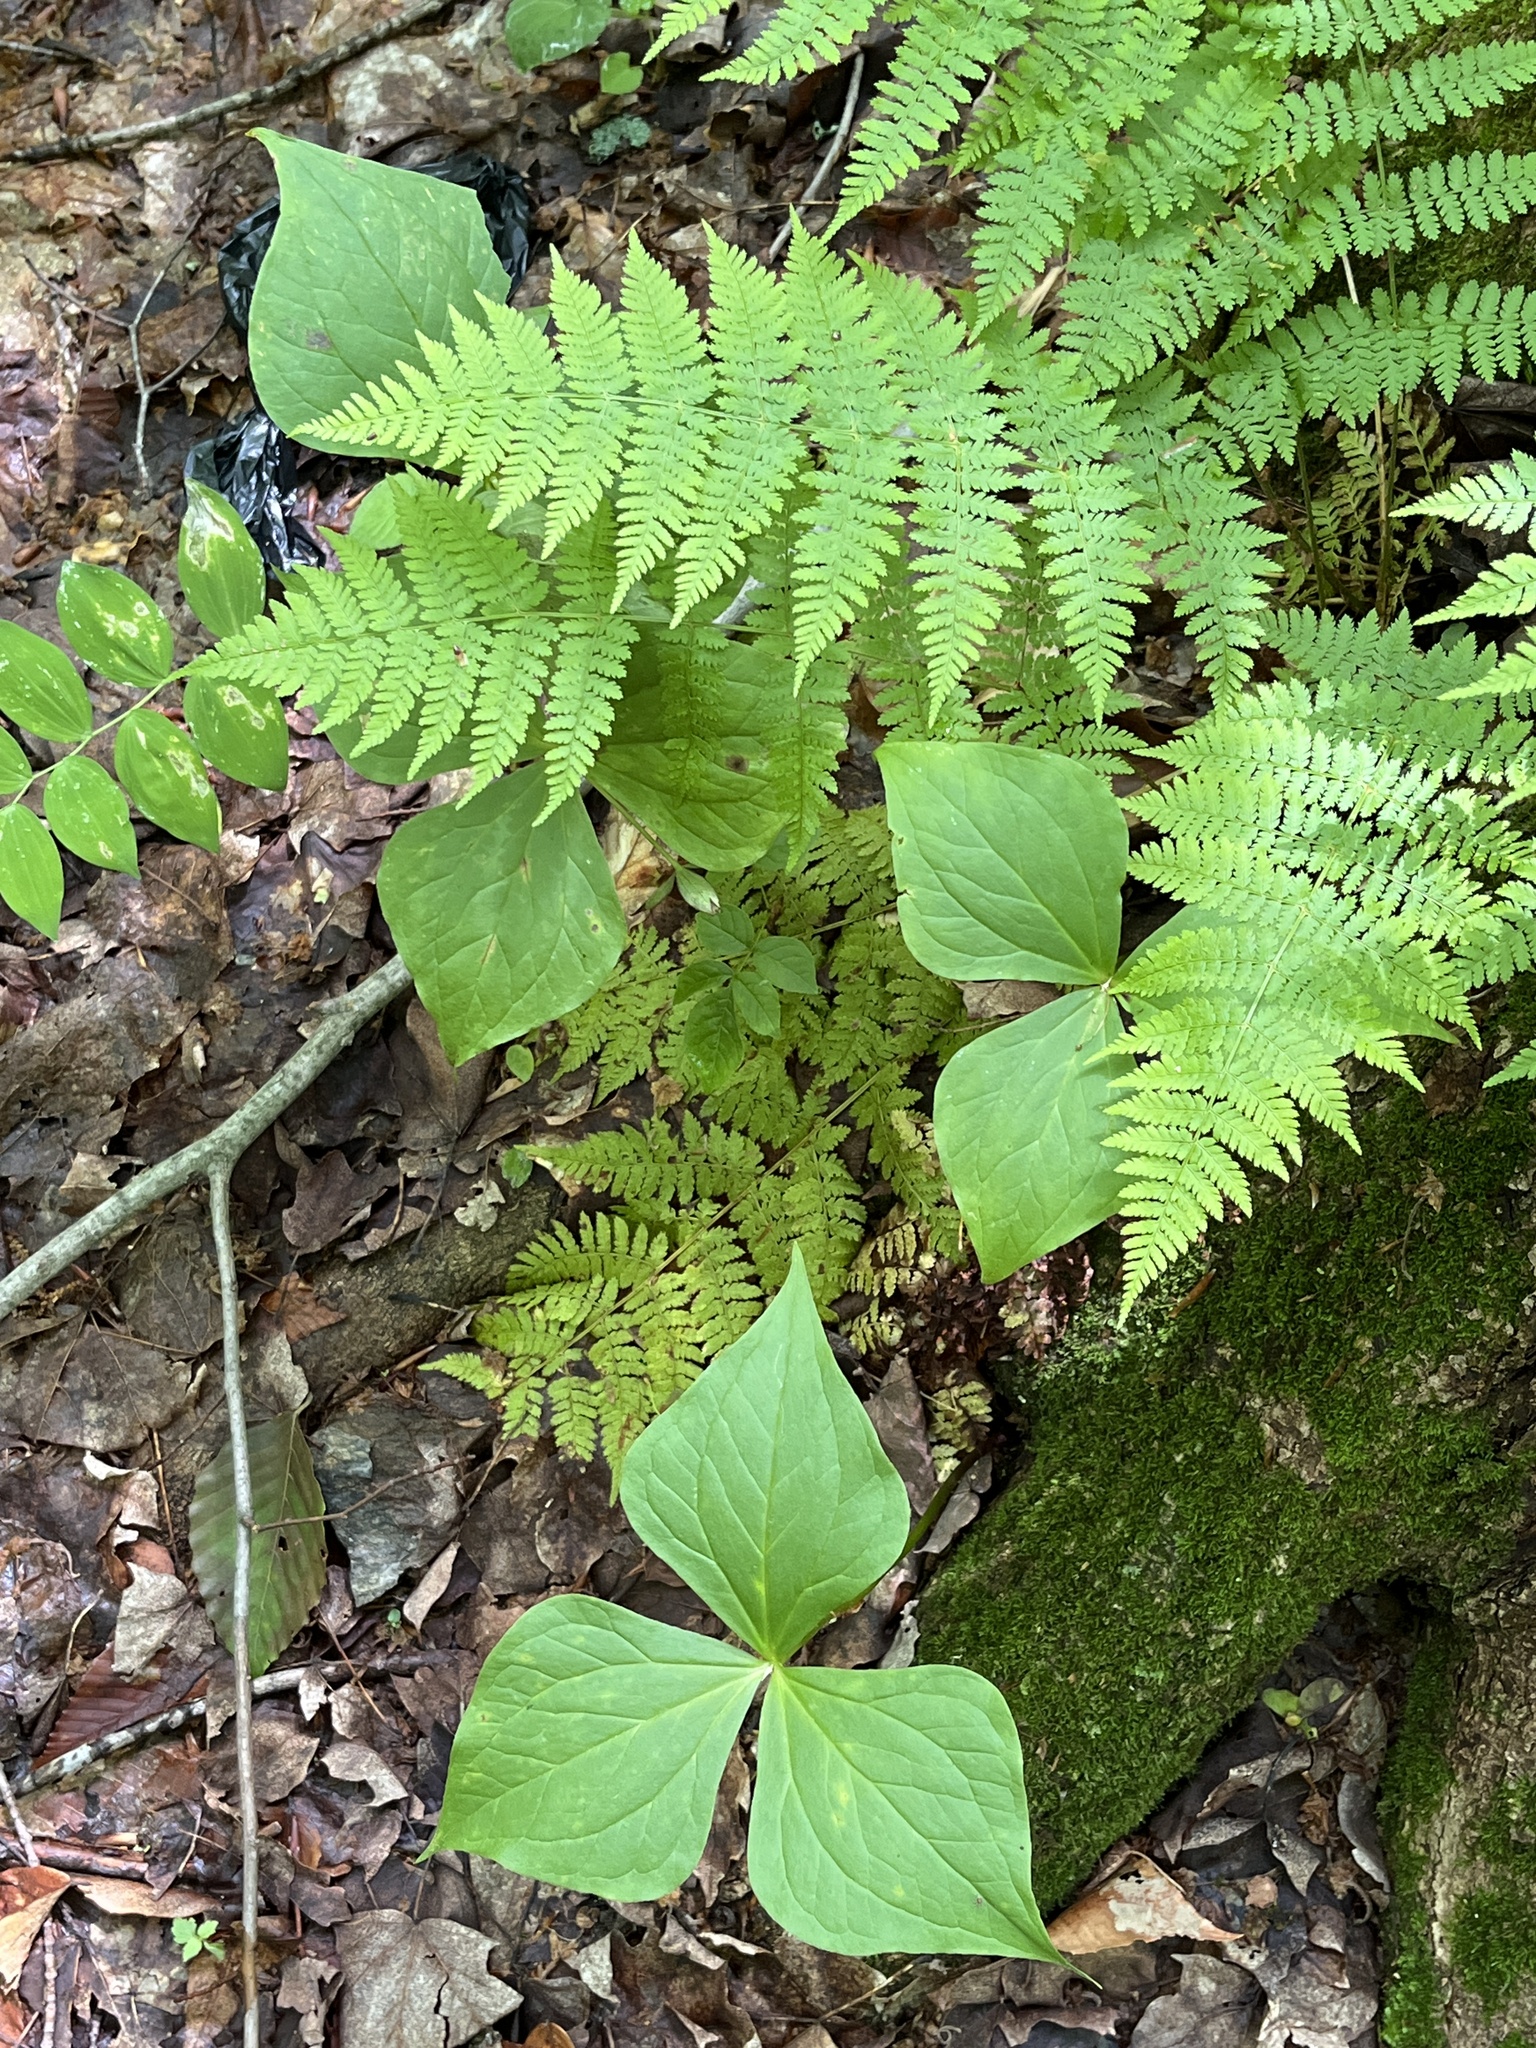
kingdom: Plantae
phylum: Tracheophyta
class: Liliopsida
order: Liliales
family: Melanthiaceae
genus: Trillium
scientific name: Trillium erectum
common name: Purple trillium
